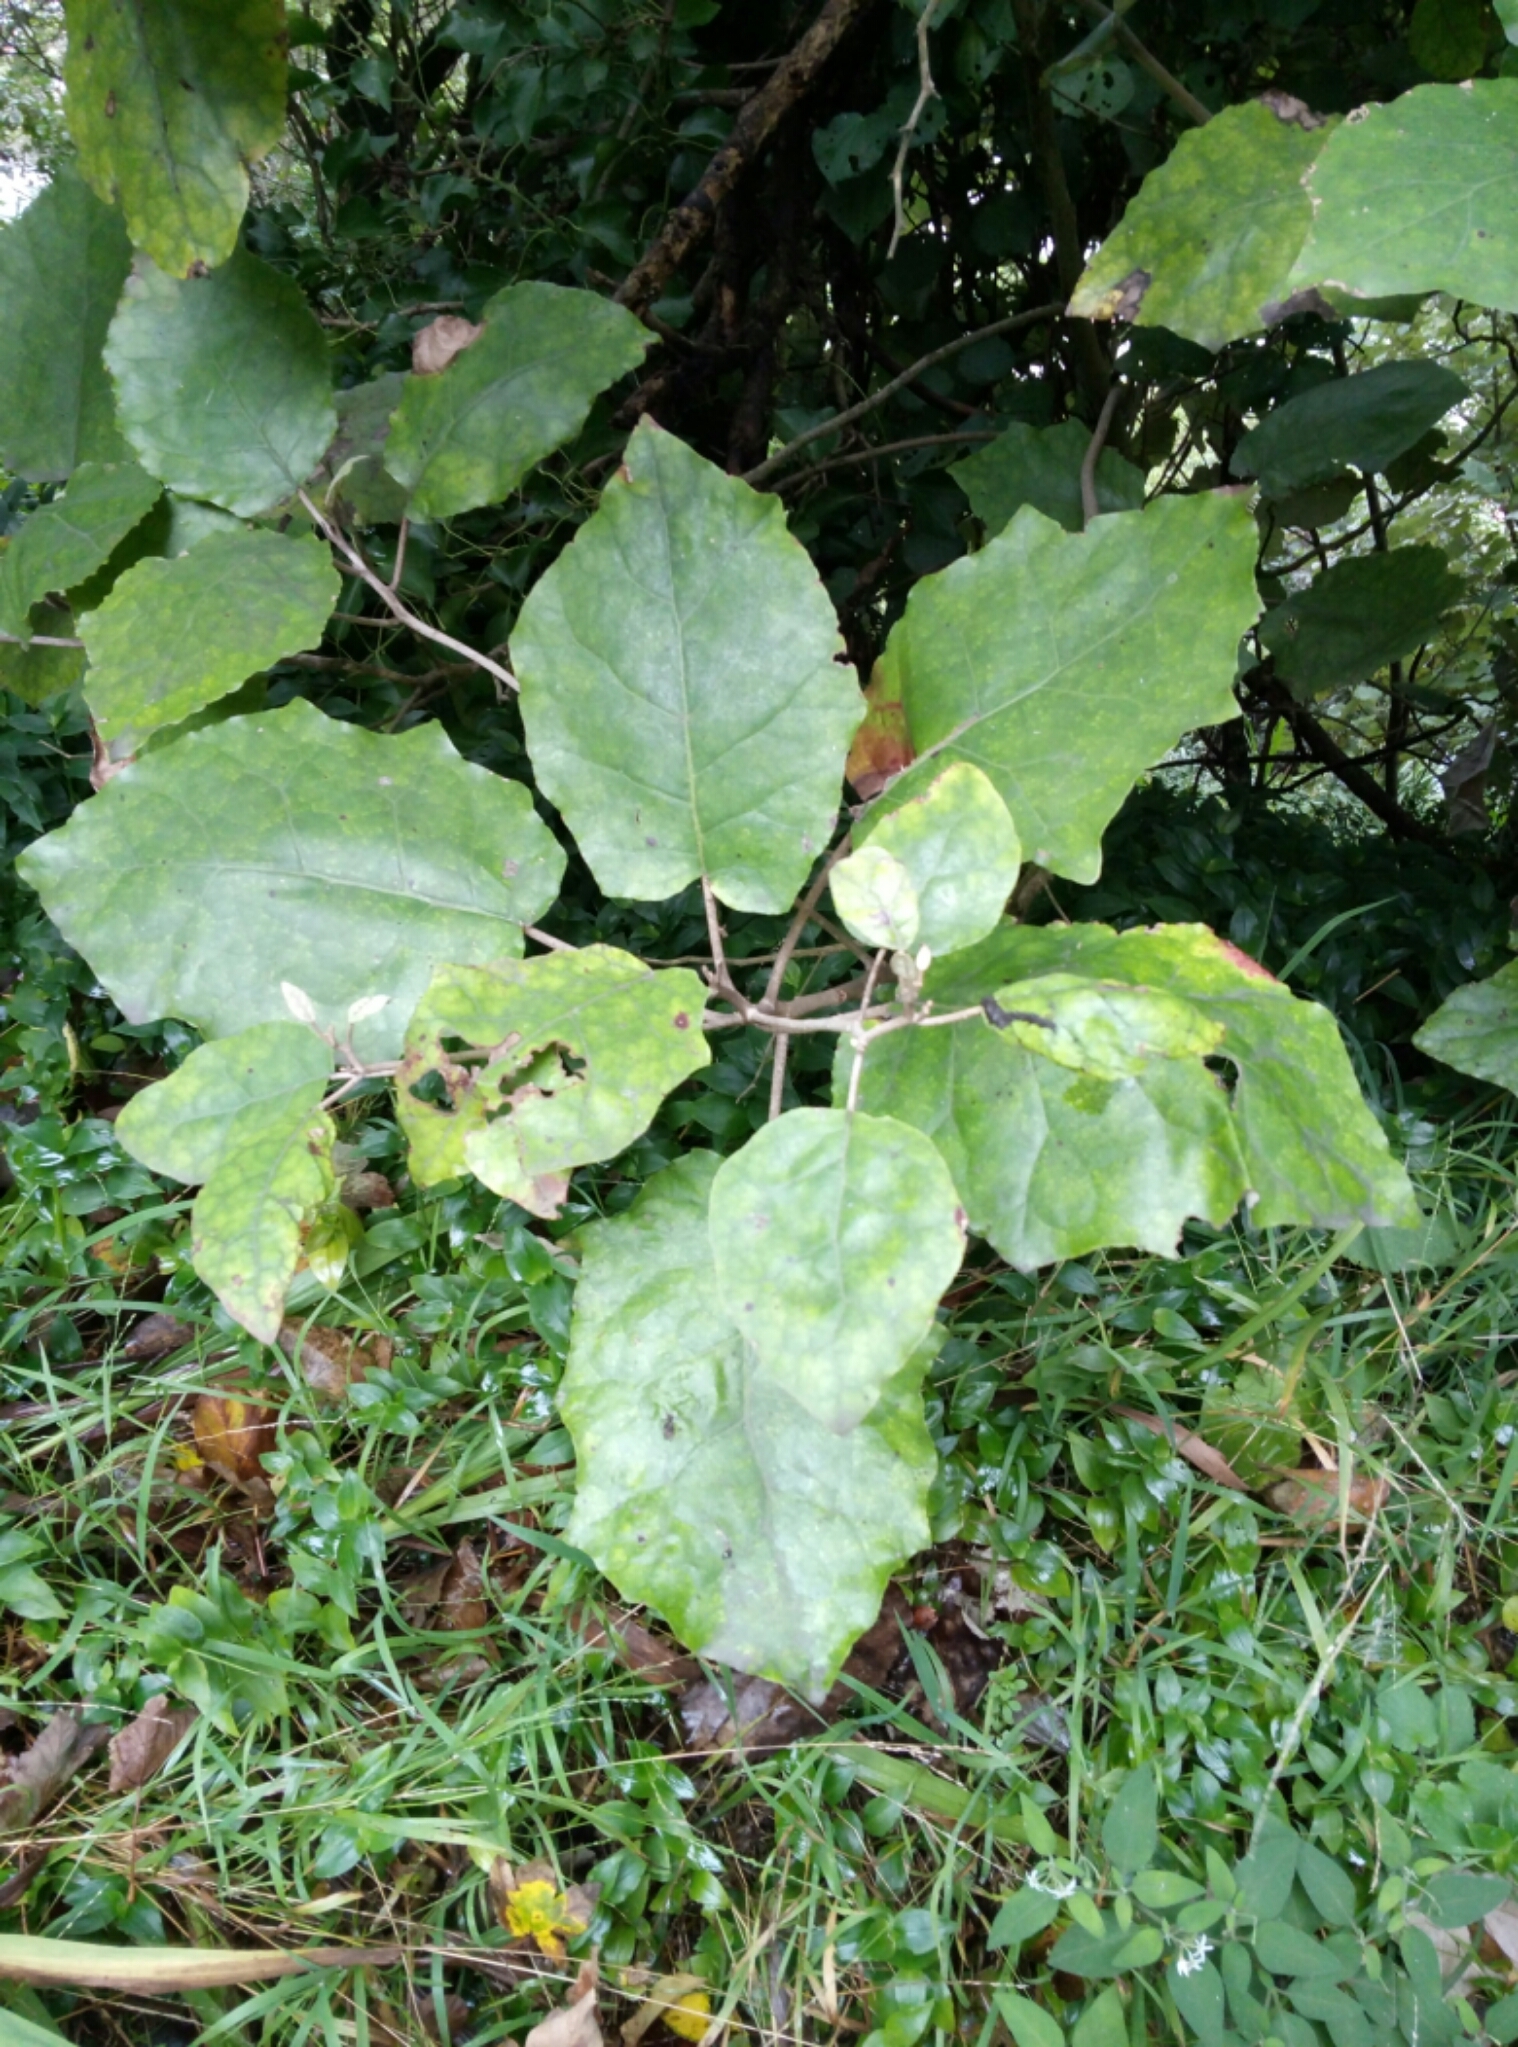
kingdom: Plantae
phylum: Tracheophyta
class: Magnoliopsida
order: Asterales
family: Asteraceae
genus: Brachyglottis
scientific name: Brachyglottis repanda
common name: Hedge ragwort
